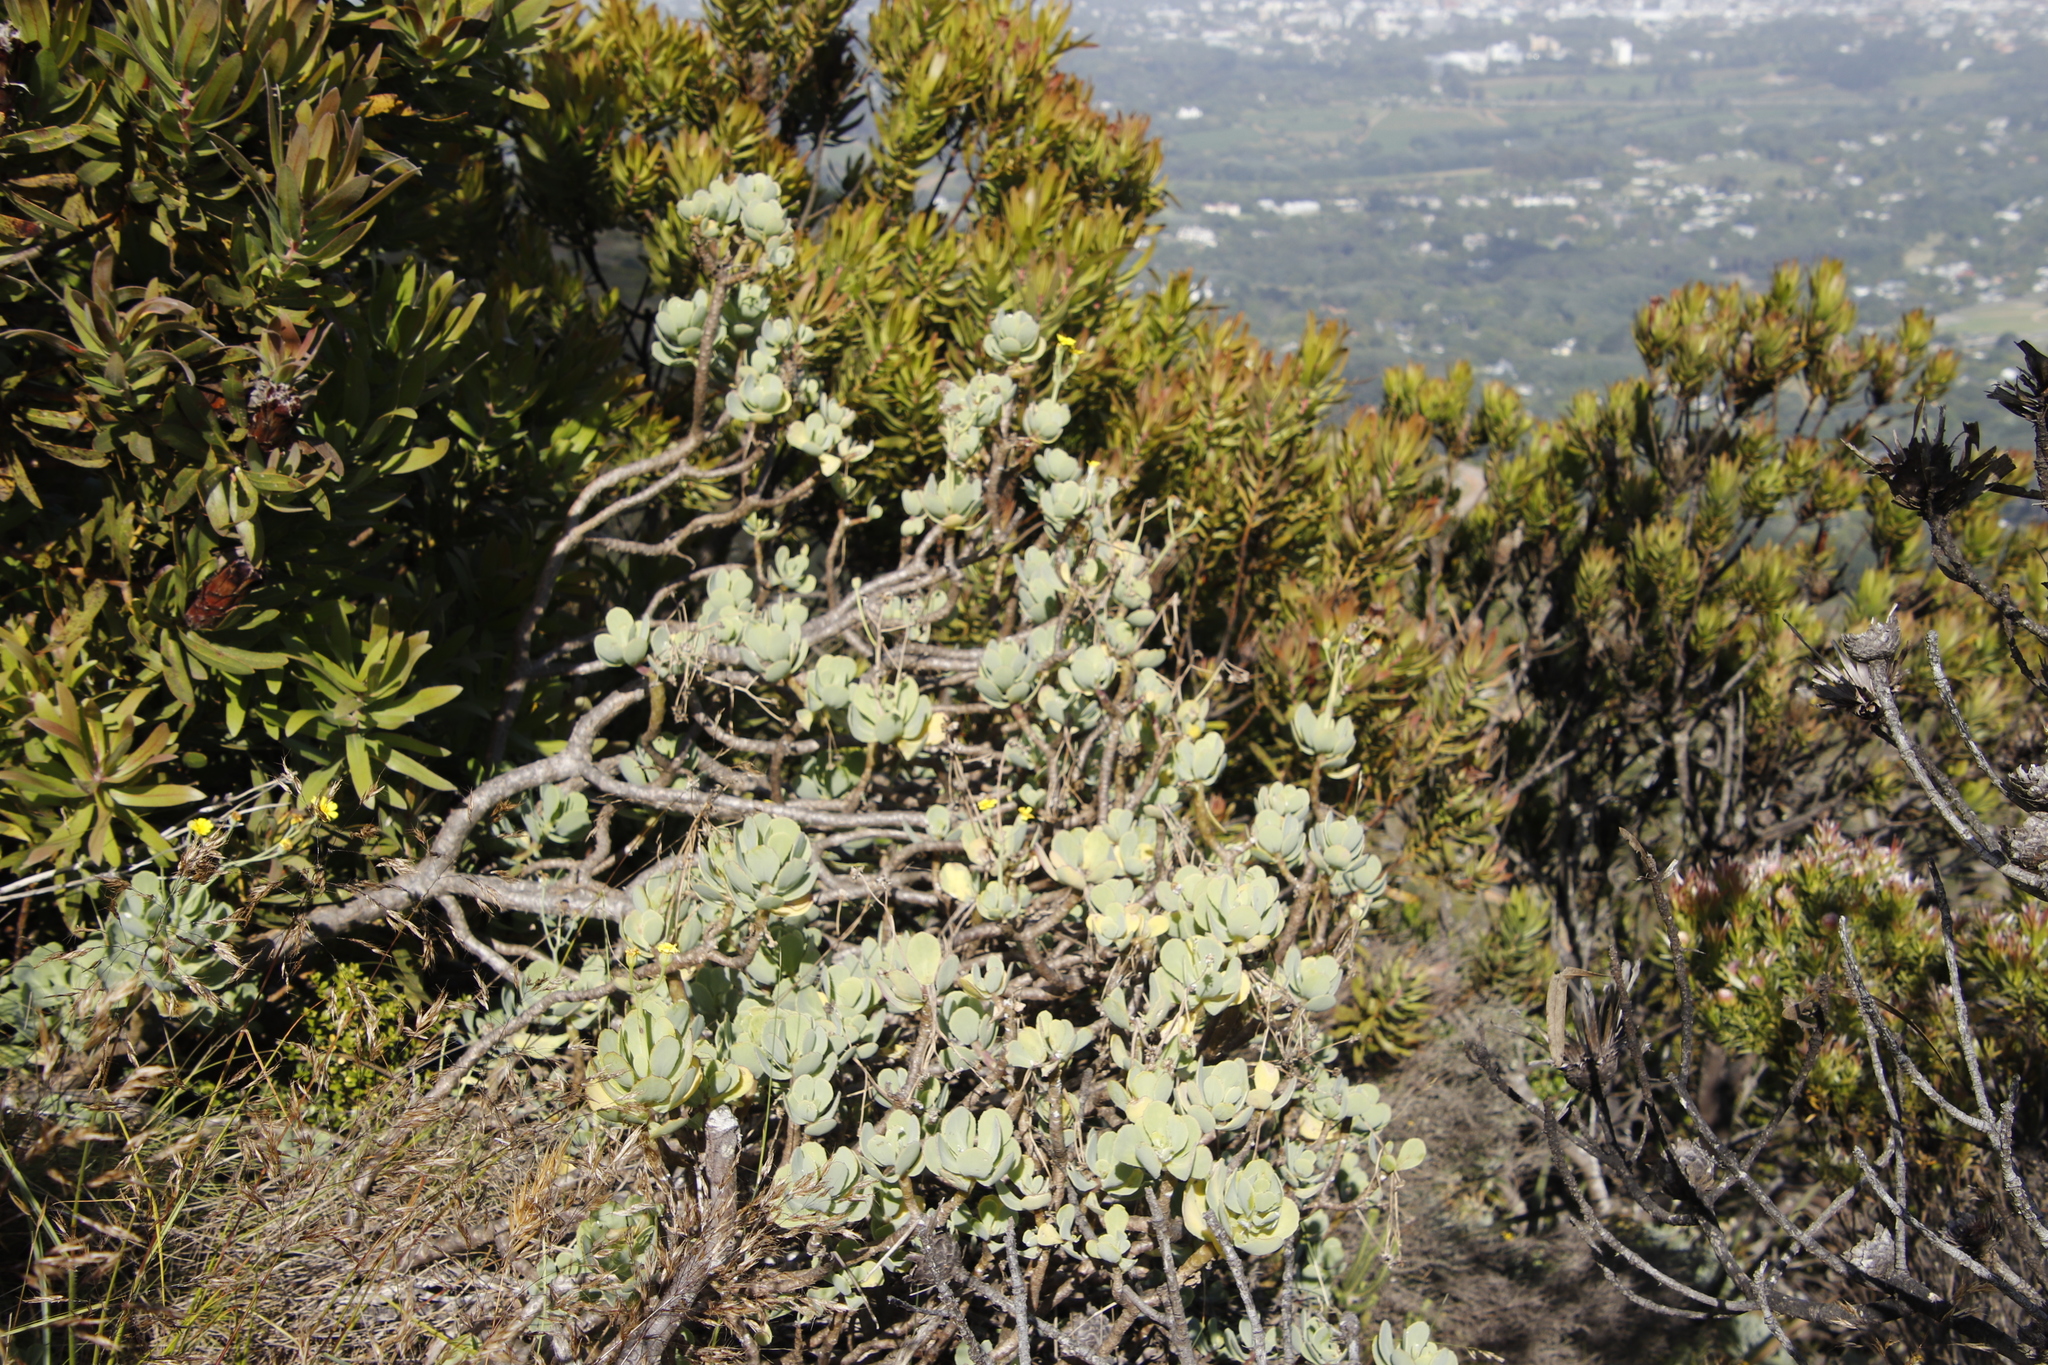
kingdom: Plantae
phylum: Tracheophyta
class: Magnoliopsida
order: Asterales
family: Asteraceae
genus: Othonna
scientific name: Othonna dentata
